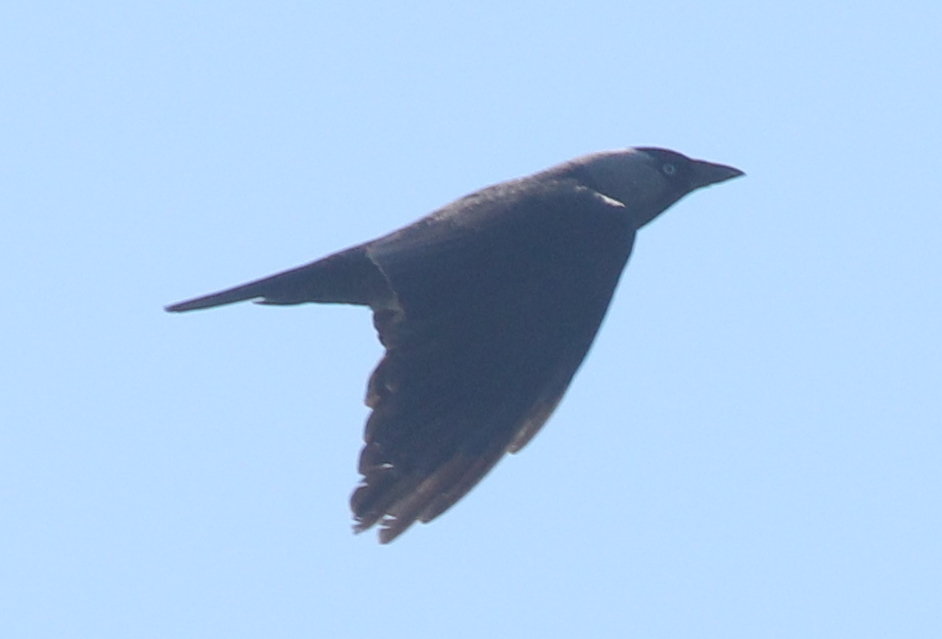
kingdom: Animalia
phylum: Chordata
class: Aves
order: Passeriformes
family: Corvidae
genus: Coloeus
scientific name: Coloeus monedula
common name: Western jackdaw
